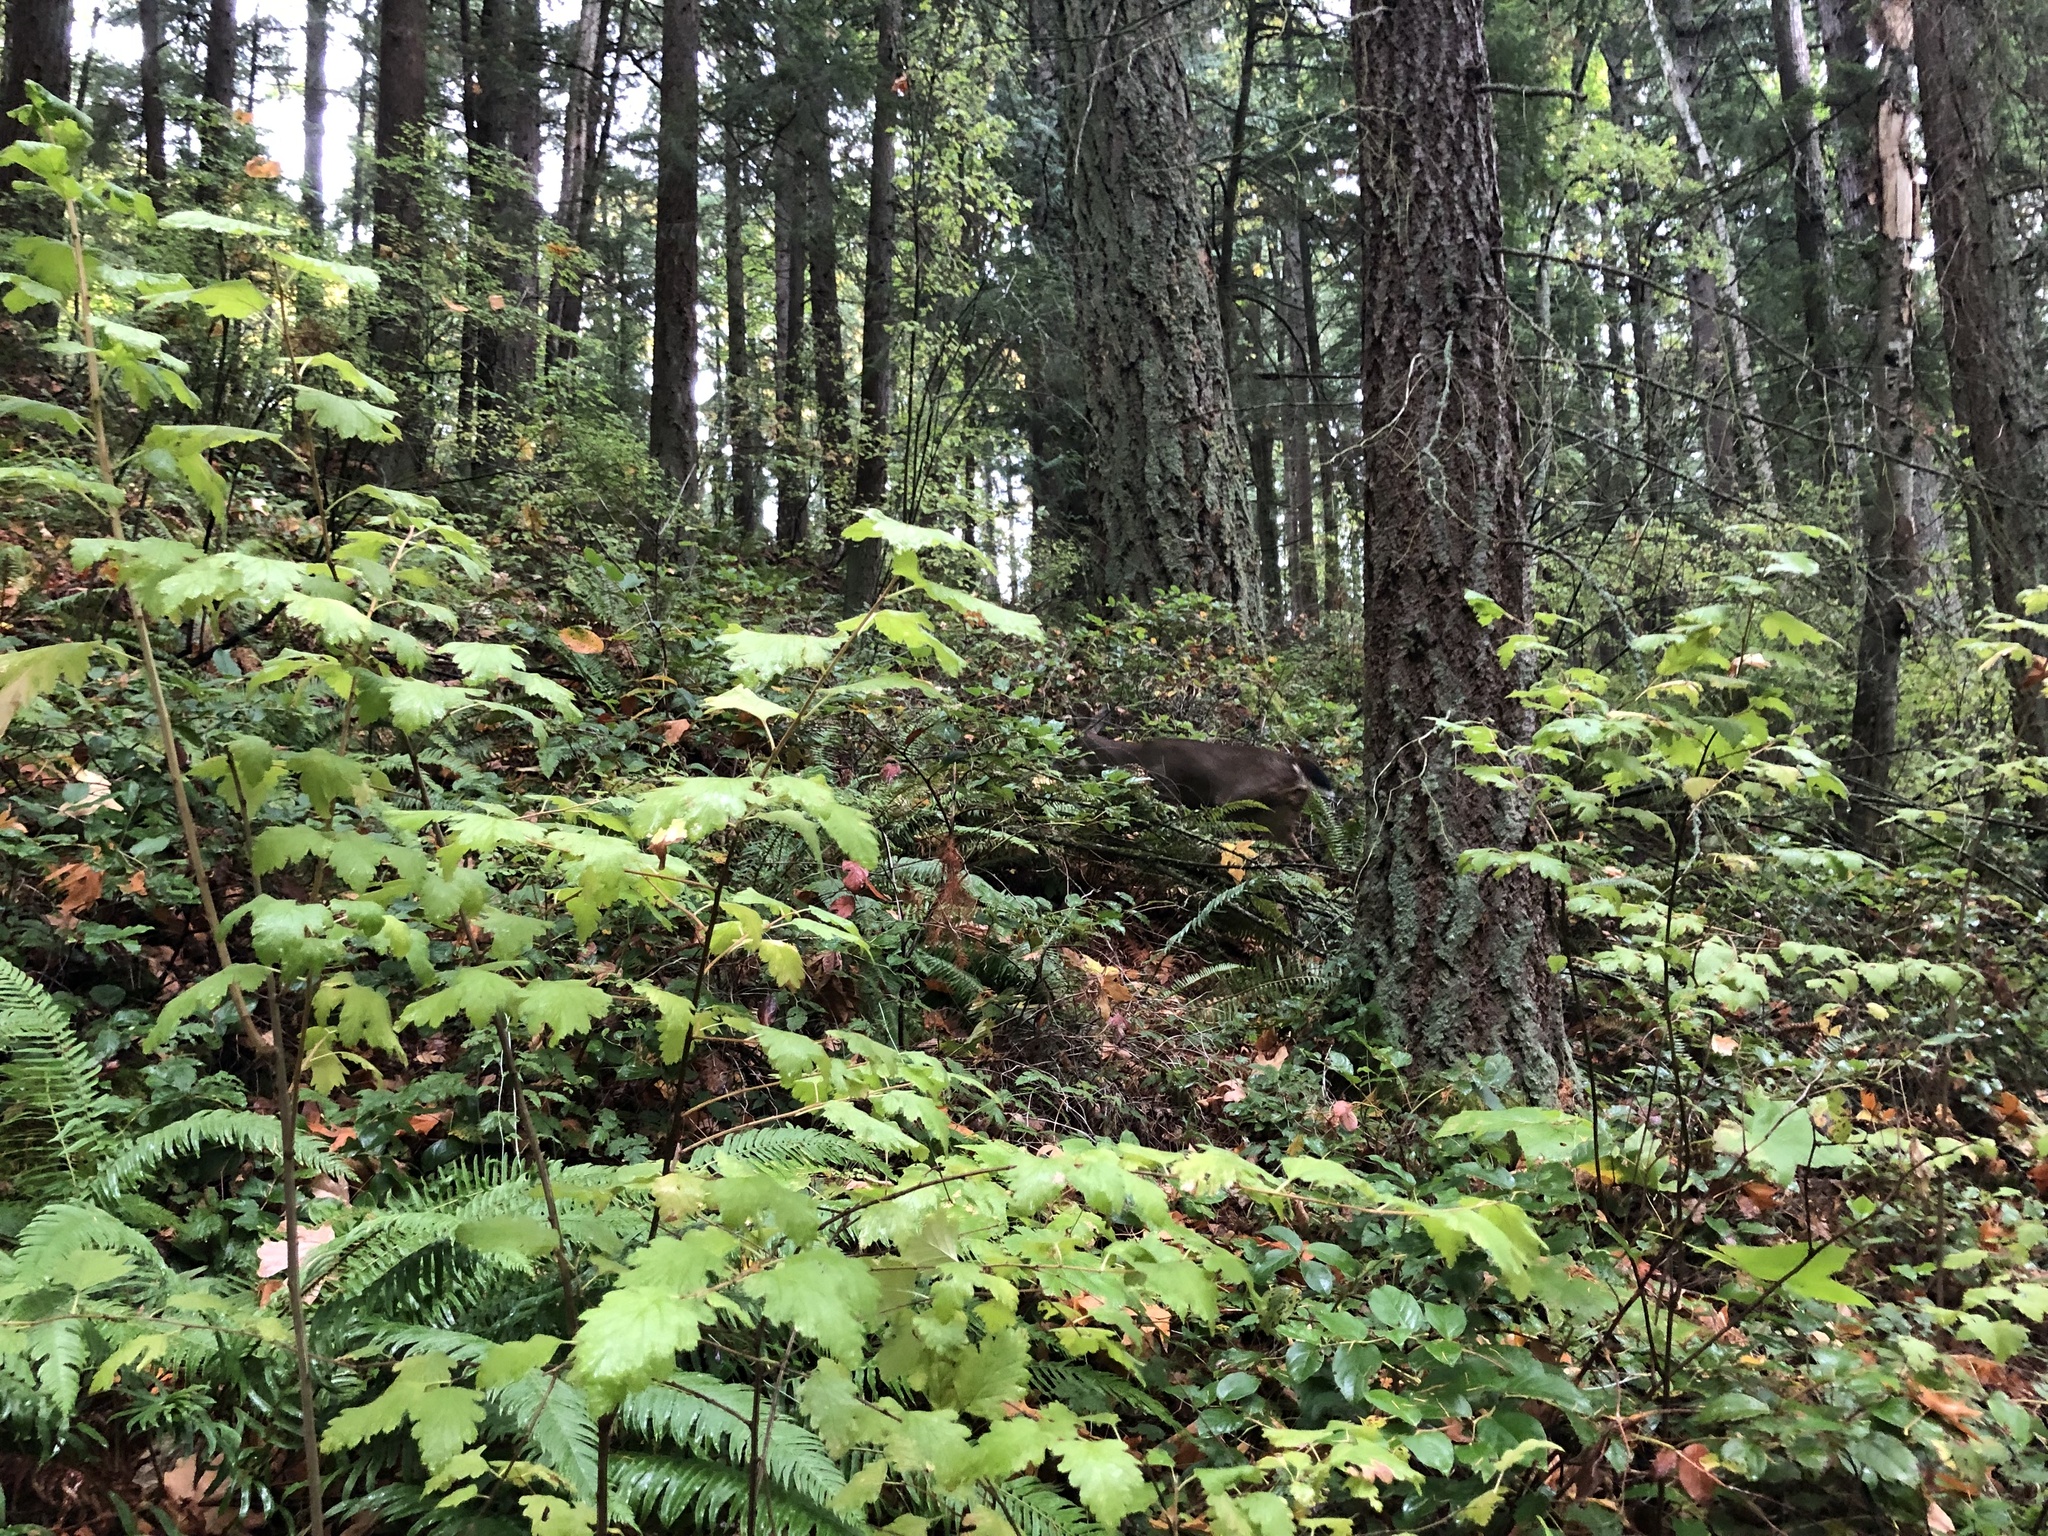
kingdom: Animalia
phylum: Chordata
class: Mammalia
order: Artiodactyla
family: Cervidae
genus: Odocoileus
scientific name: Odocoileus hemionus
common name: Mule deer
